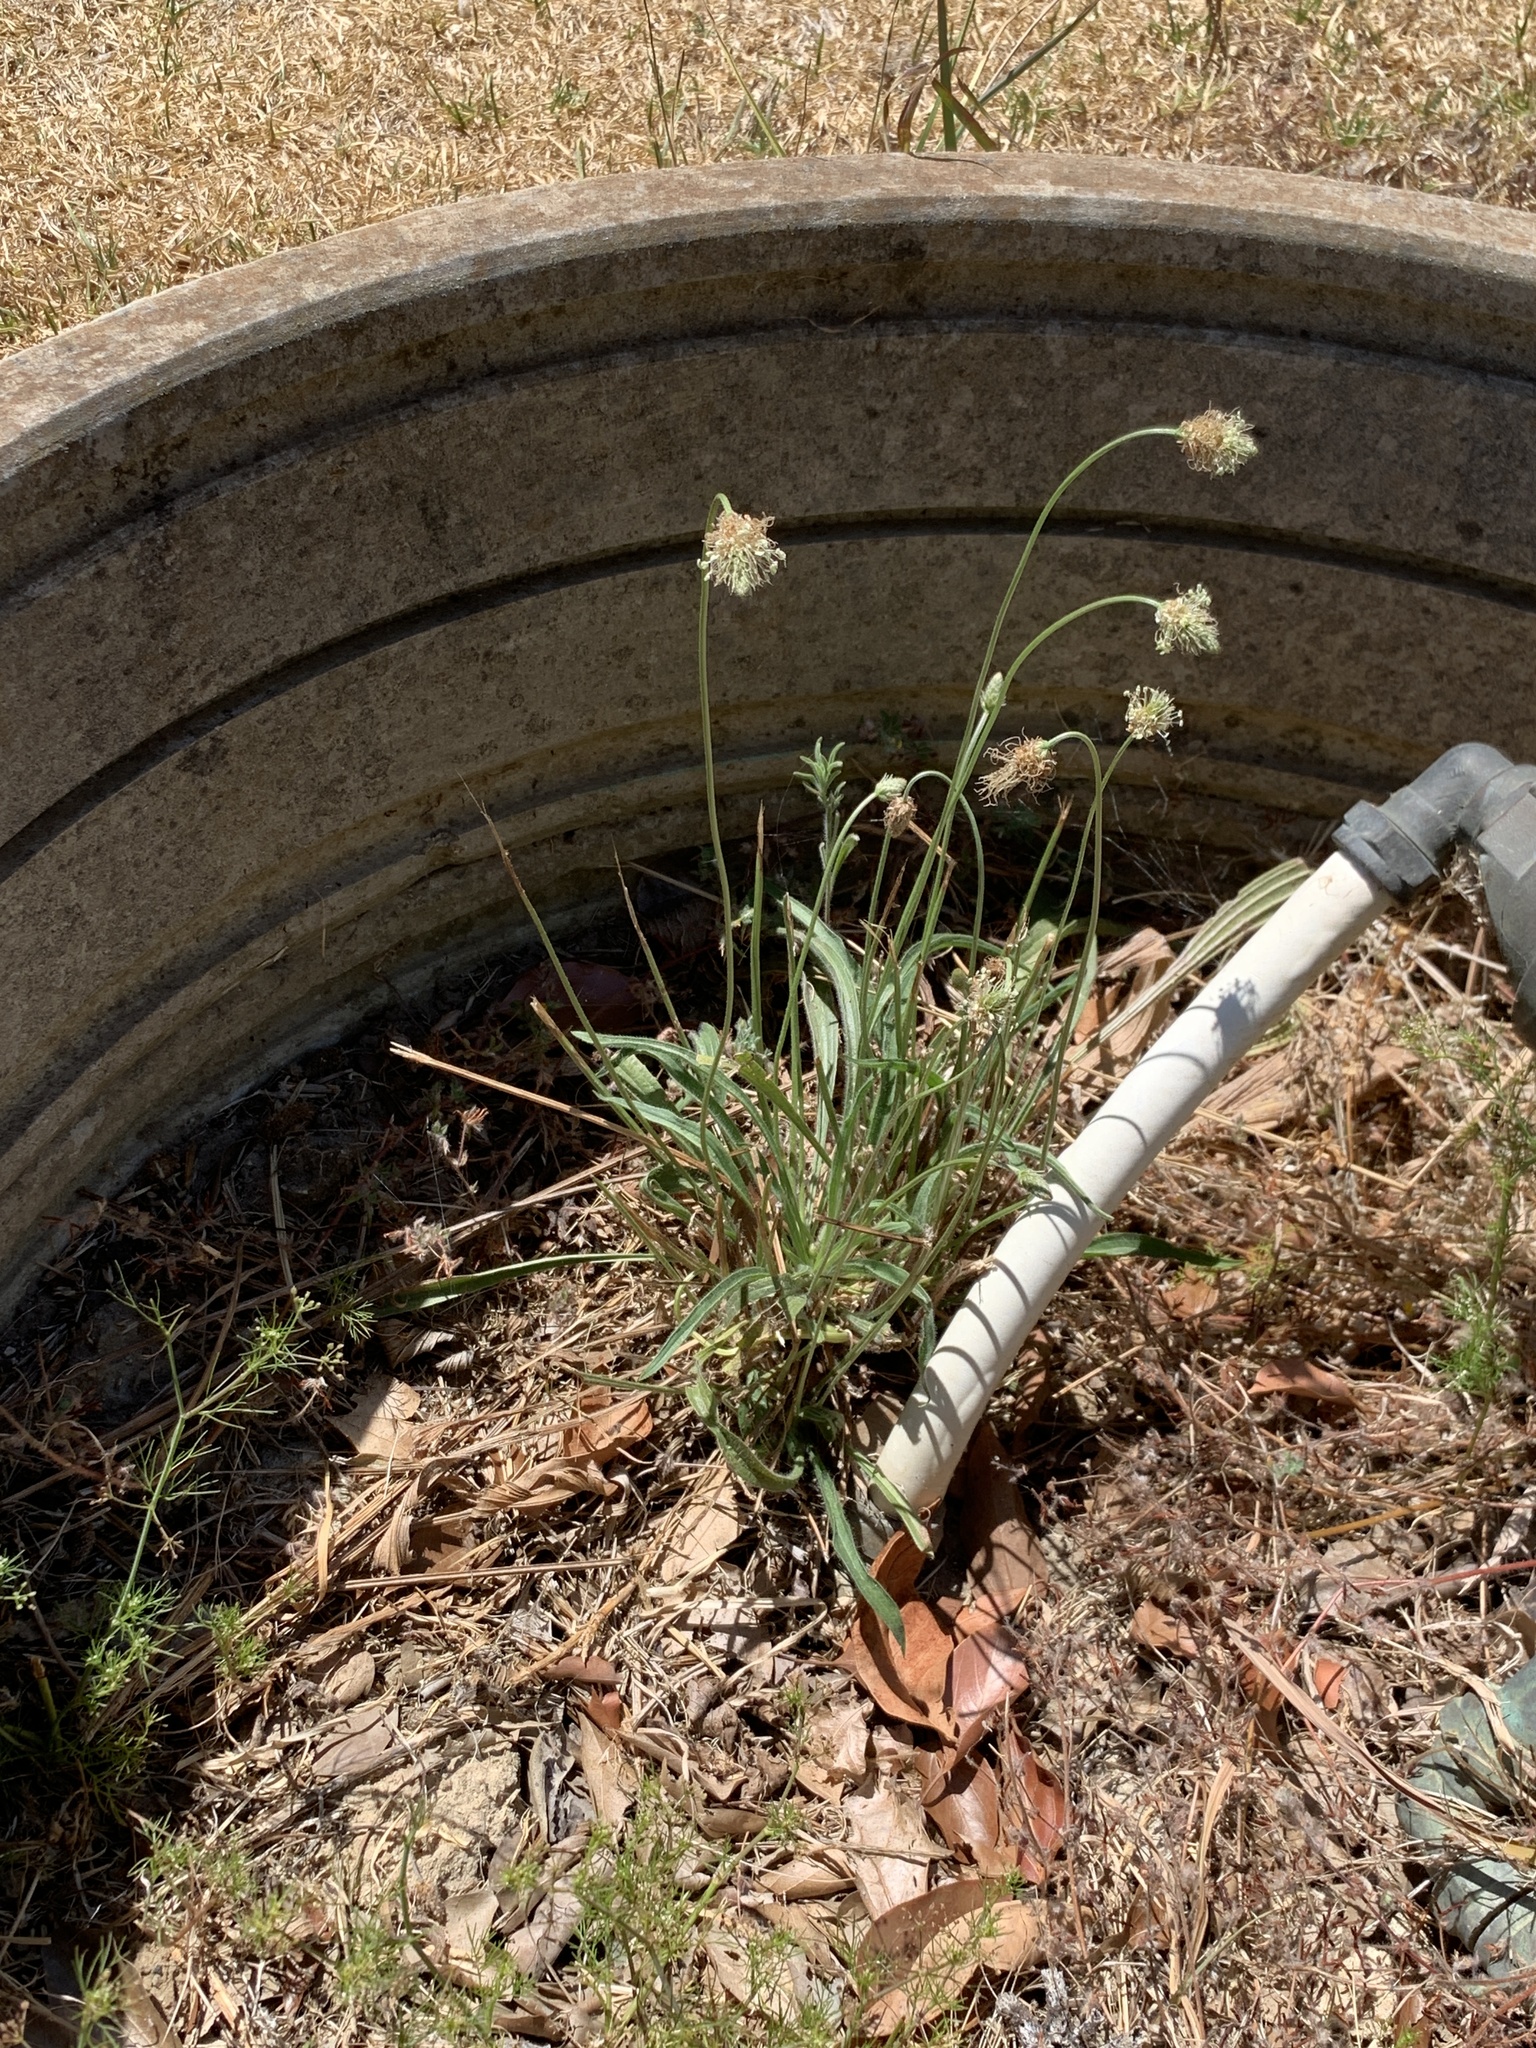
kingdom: Plantae
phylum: Tracheophyta
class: Magnoliopsida
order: Lamiales
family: Plantaginaceae
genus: Plantago
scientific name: Plantago lanceolata
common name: Ribwort plantain
